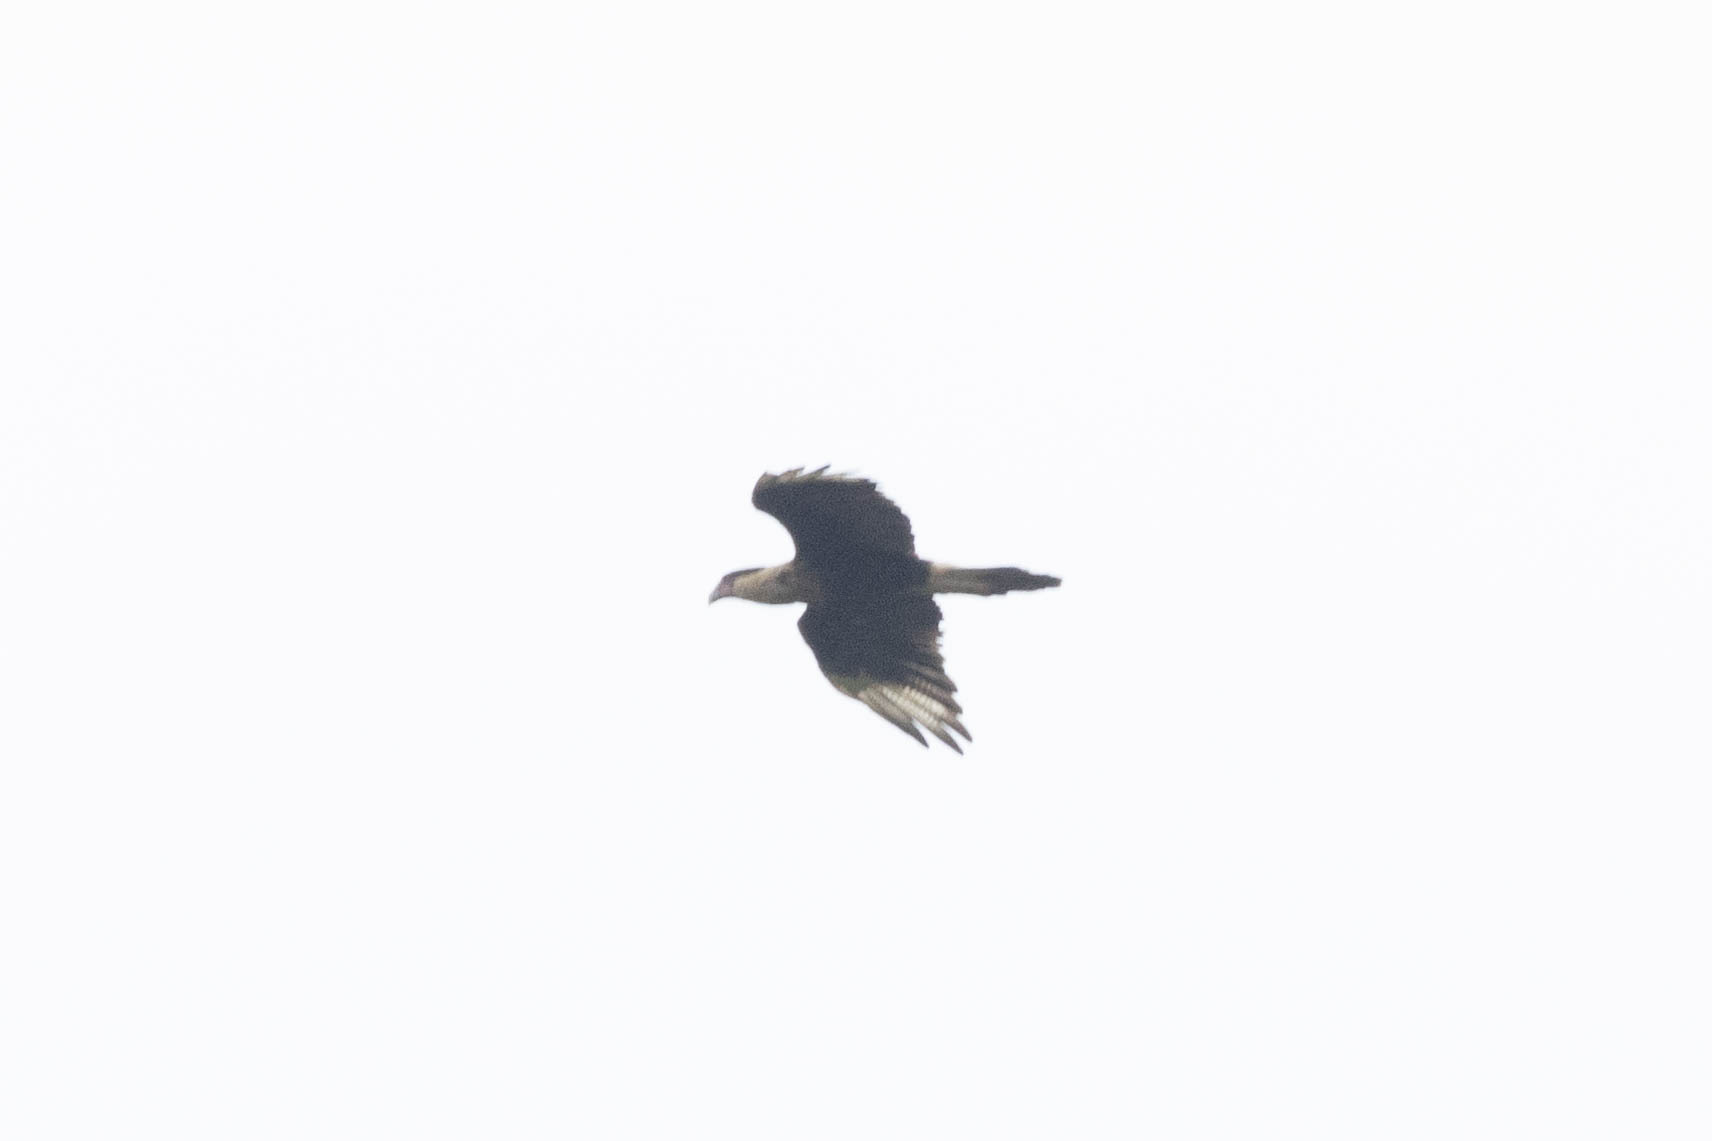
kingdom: Animalia
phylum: Chordata
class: Aves
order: Falconiformes
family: Falconidae
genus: Caracara
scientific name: Caracara plancus
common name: Southern caracara
